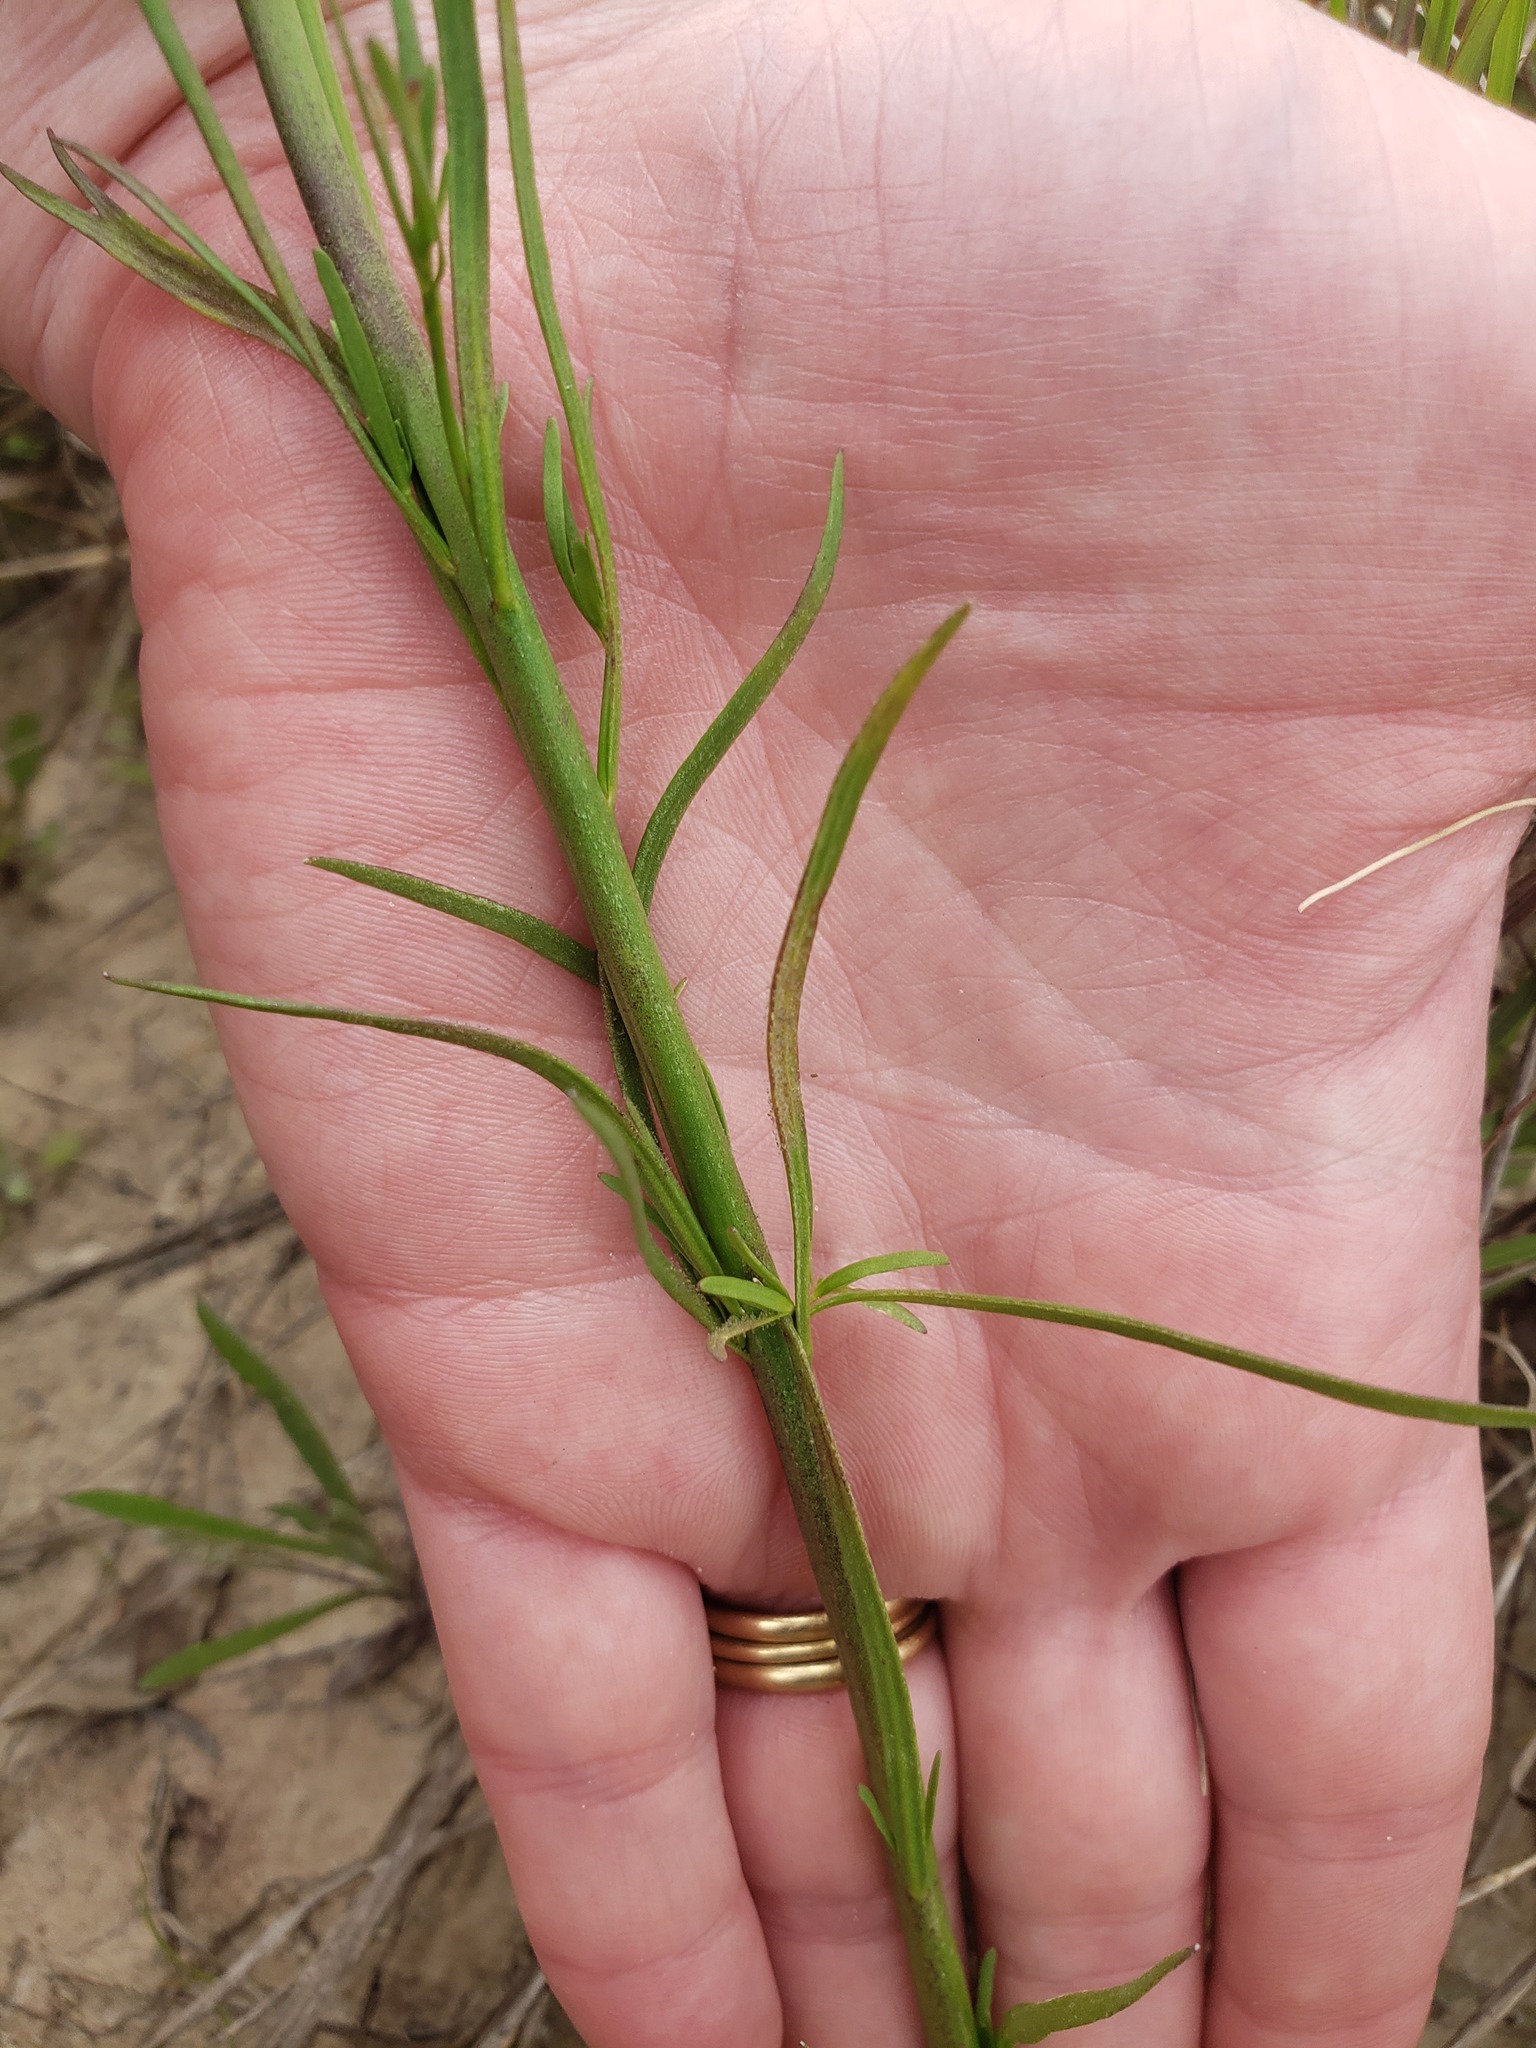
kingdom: Plantae
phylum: Tracheophyta
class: Magnoliopsida
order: Lamiales
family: Plantaginaceae
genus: Nuttallanthus
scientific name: Nuttallanthus canadensis
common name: Blue toadflax
